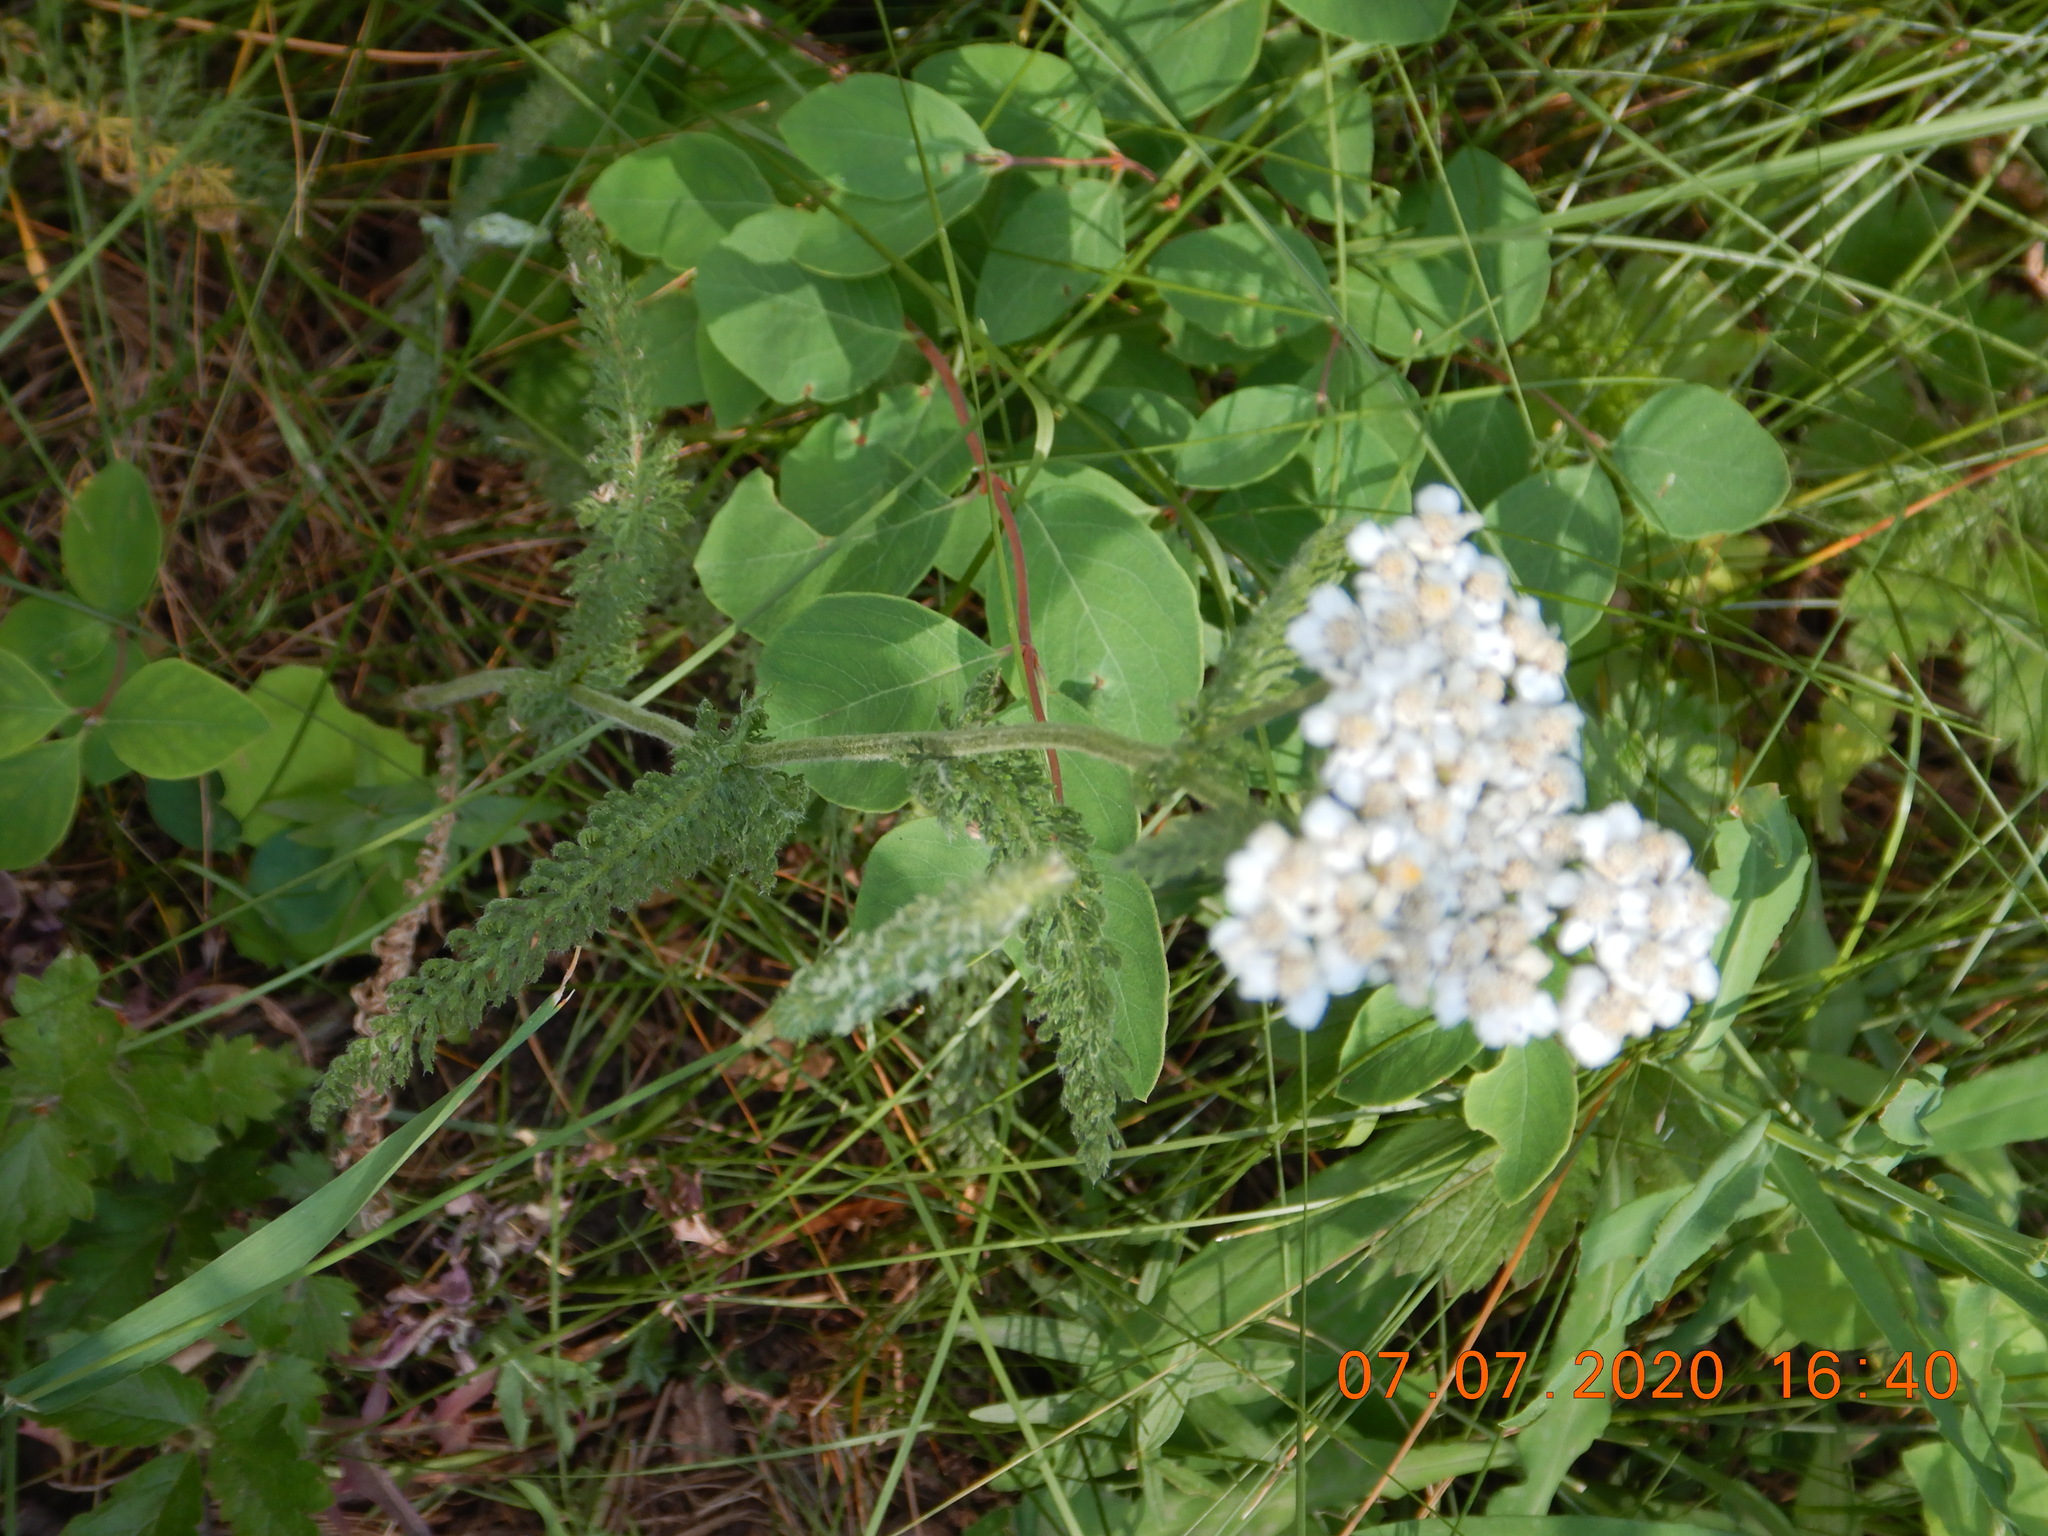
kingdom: Plantae
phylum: Tracheophyta
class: Magnoliopsida
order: Asterales
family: Asteraceae
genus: Achillea
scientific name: Achillea millefolium
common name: Yarrow
